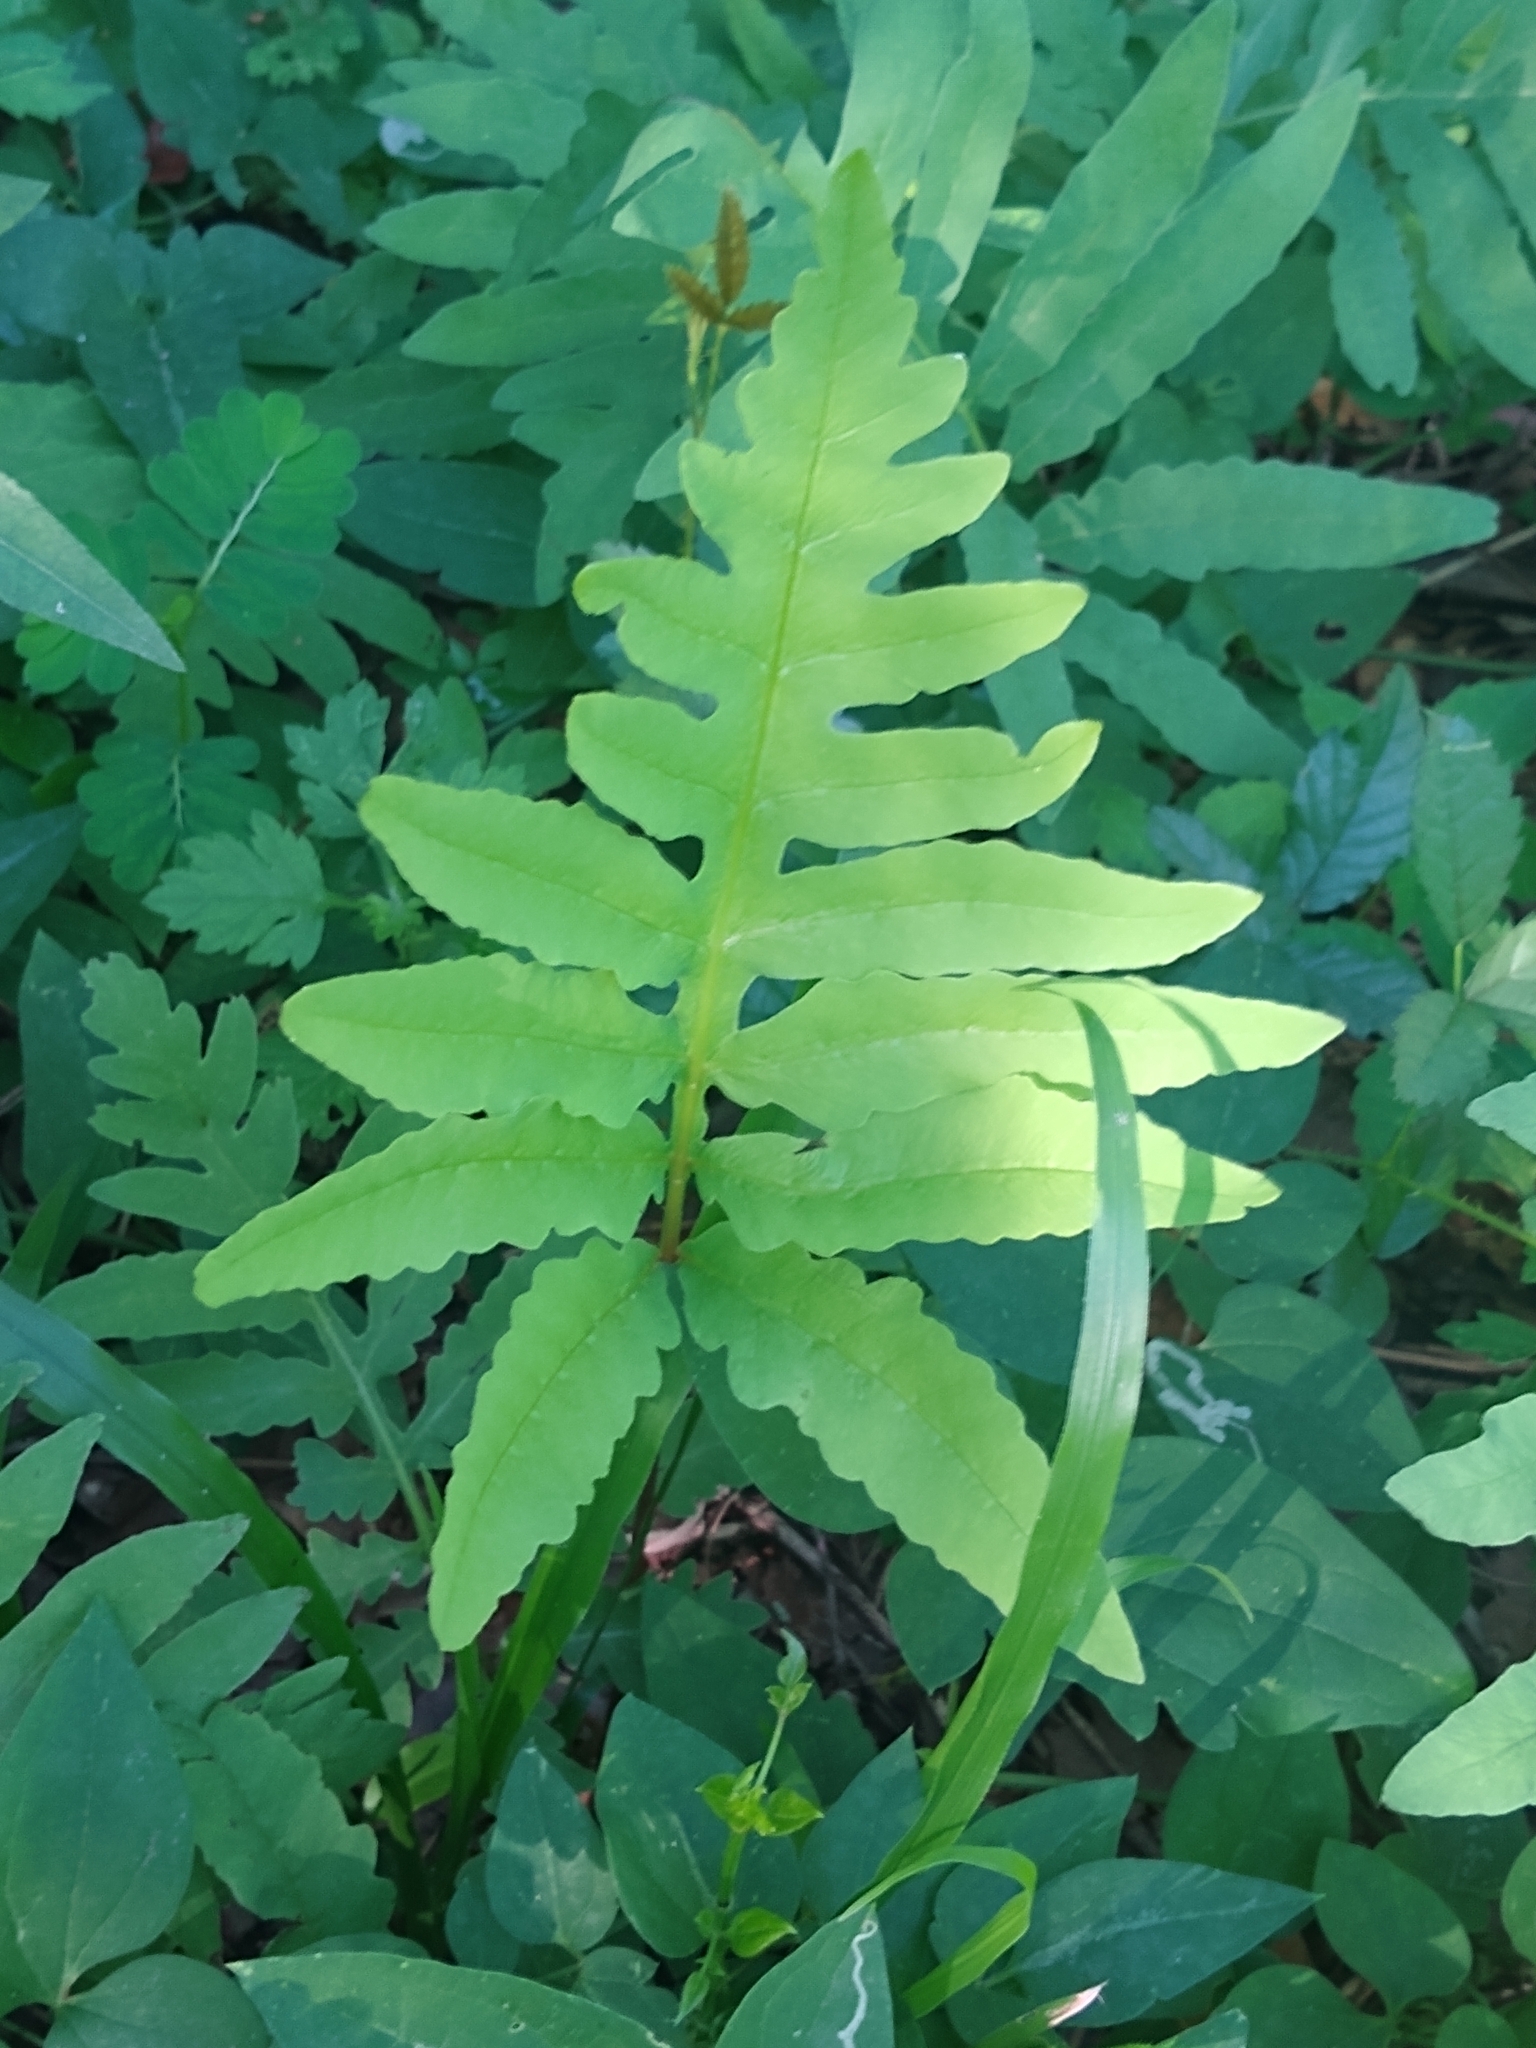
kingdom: Plantae
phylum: Tracheophyta
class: Polypodiopsida
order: Polypodiales
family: Onocleaceae
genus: Onoclea
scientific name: Onoclea sensibilis
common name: Sensitive fern
